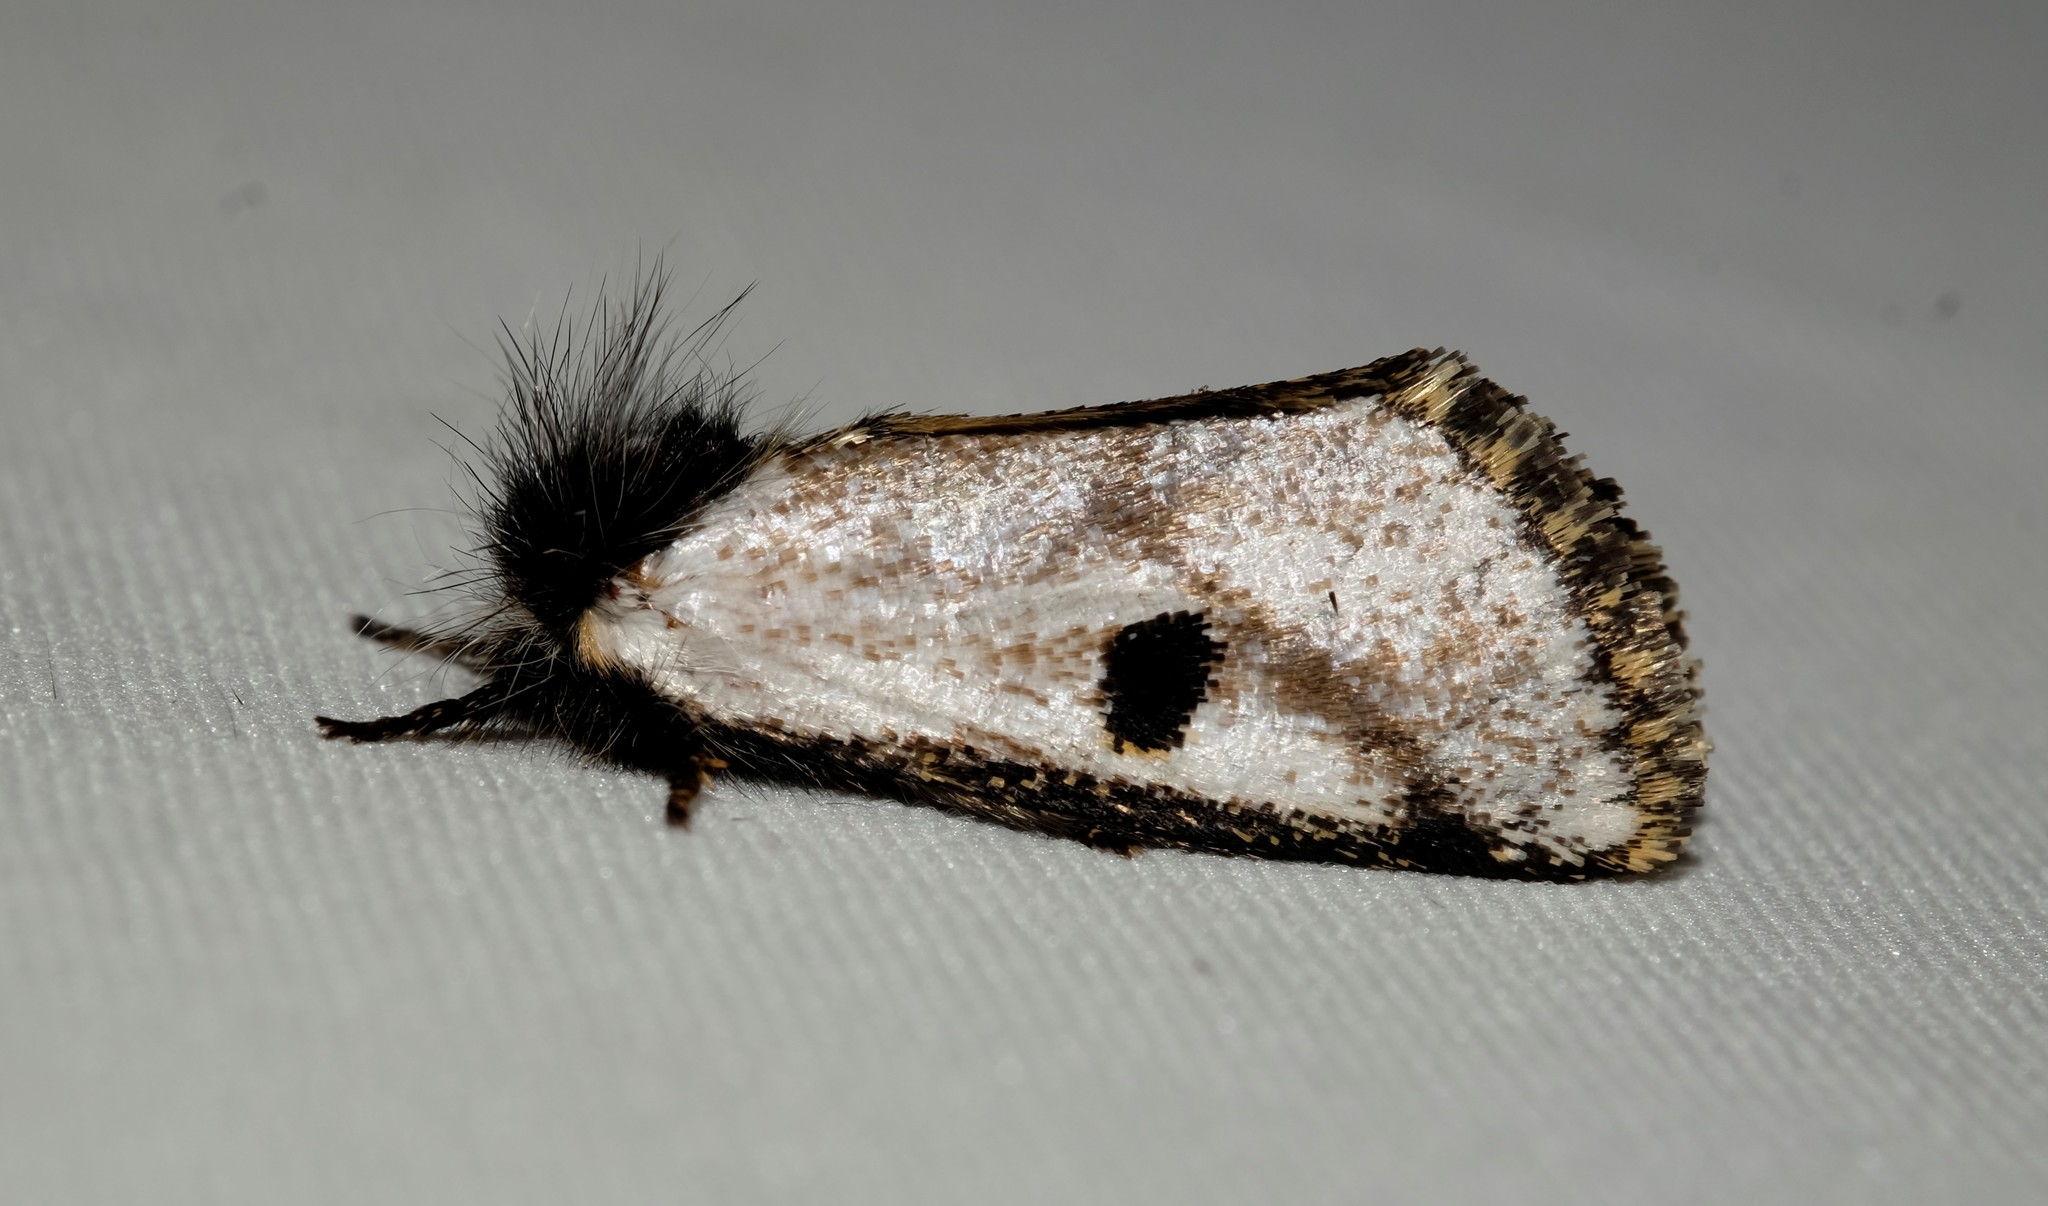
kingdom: Animalia
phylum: Arthropoda
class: Insecta
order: Lepidoptera
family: Notodontidae
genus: Epicoma
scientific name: Epicoma melanospila
